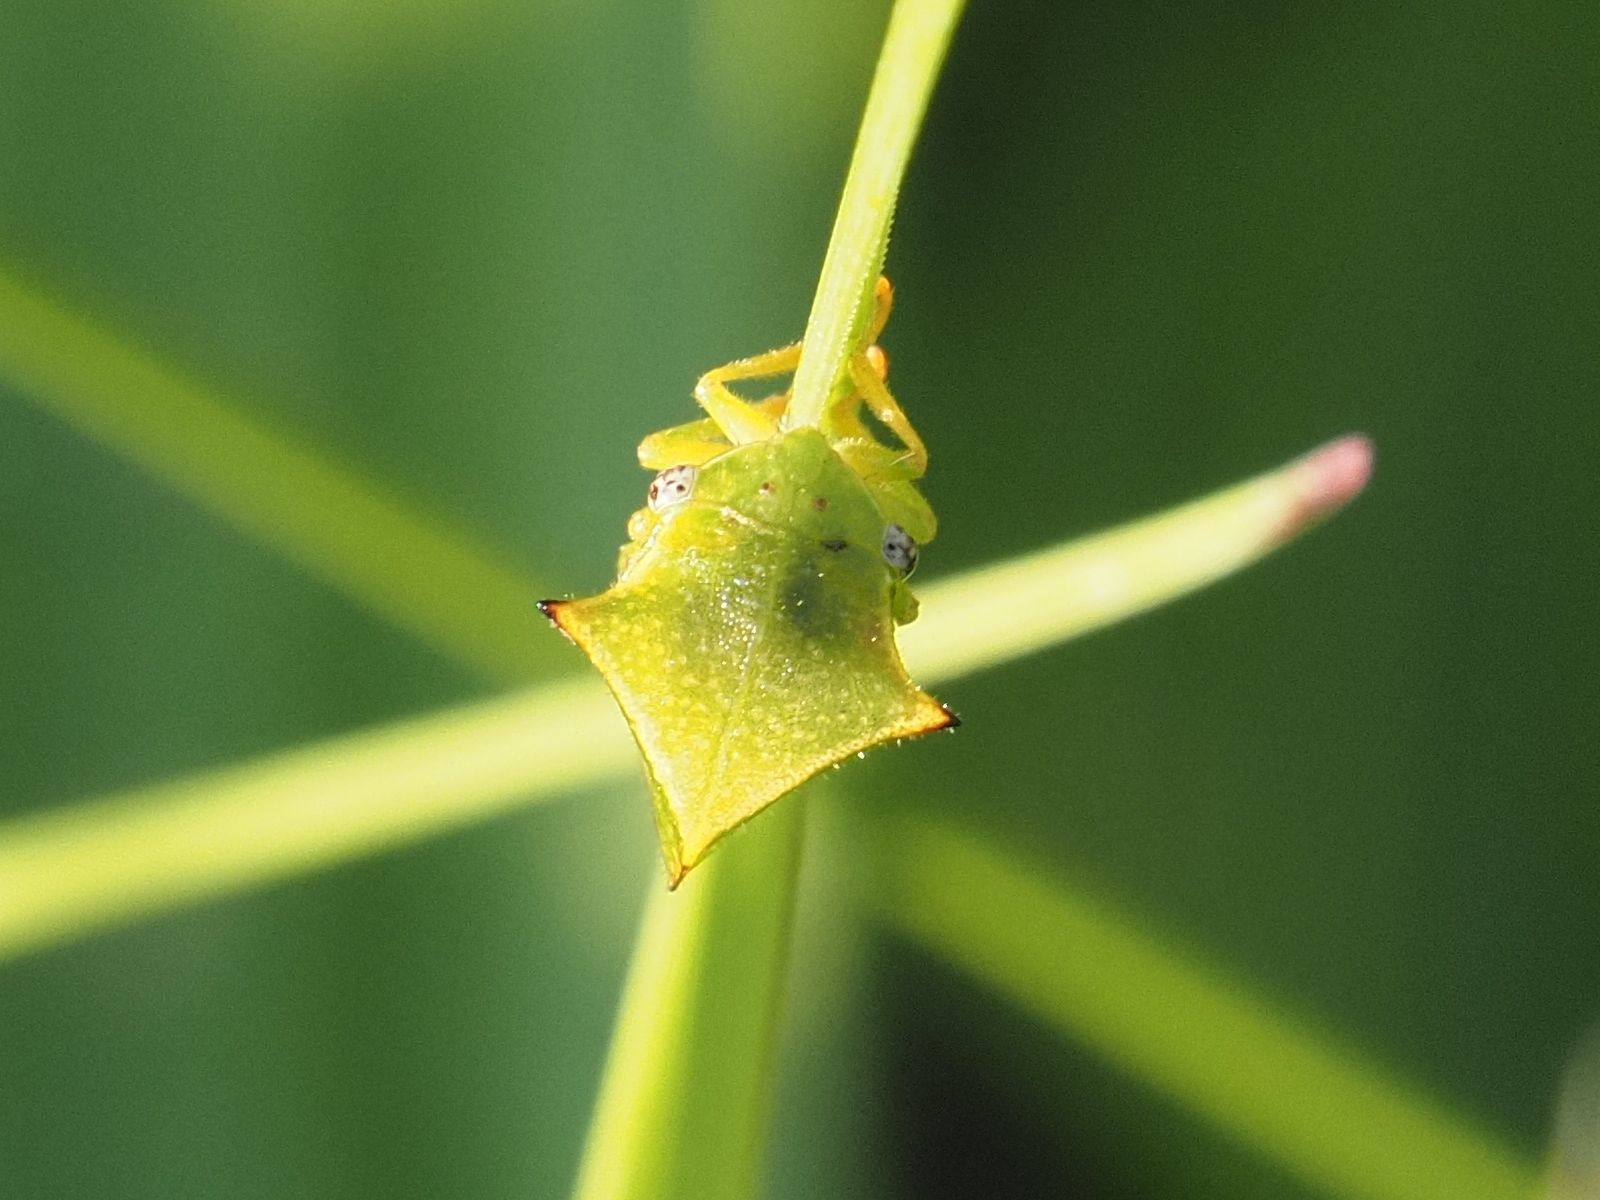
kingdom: Animalia
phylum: Arthropoda
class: Insecta
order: Hemiptera
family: Membracidae
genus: Stictocephala
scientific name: Stictocephala bisonia
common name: American buffalo treehopper
